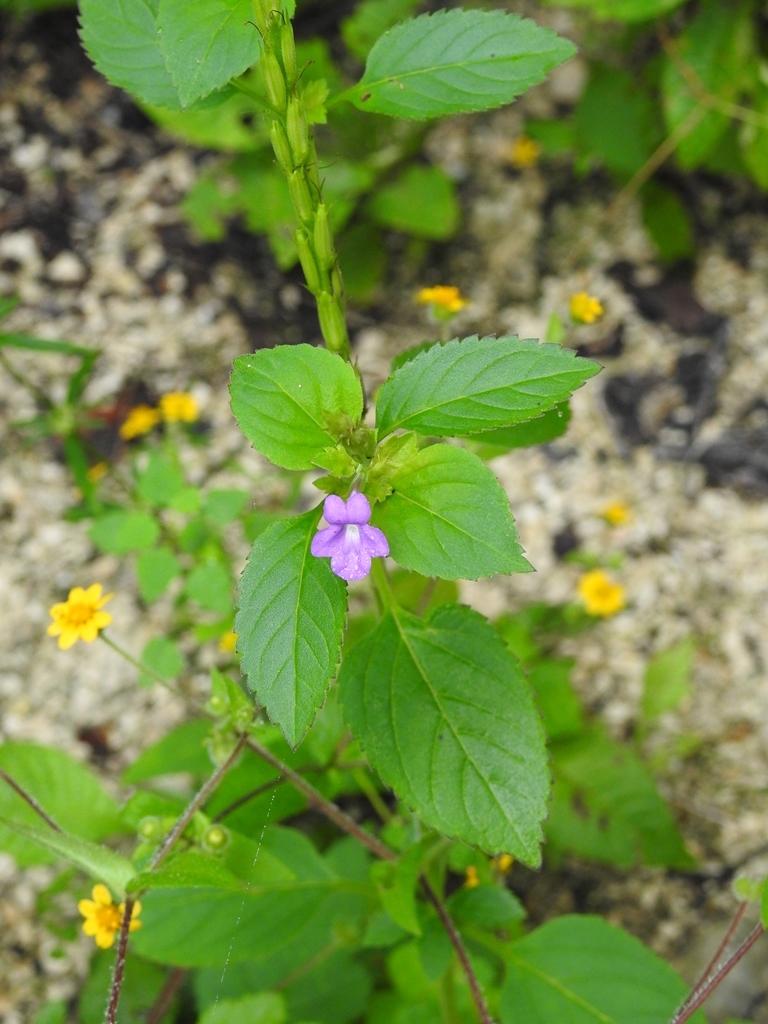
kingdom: Plantae
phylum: Tracheophyta
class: Magnoliopsida
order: Lamiales
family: Verbenaceae
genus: Bouchea
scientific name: Bouchea prismatica
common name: Vervine
